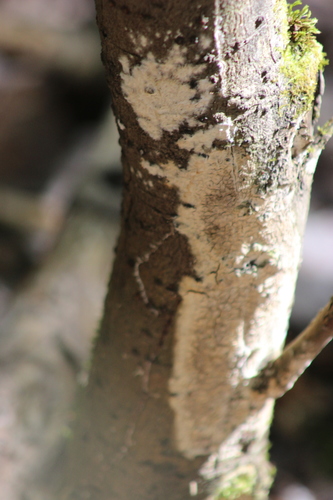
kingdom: Fungi
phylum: Basidiomycota
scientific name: Basidiomycota
